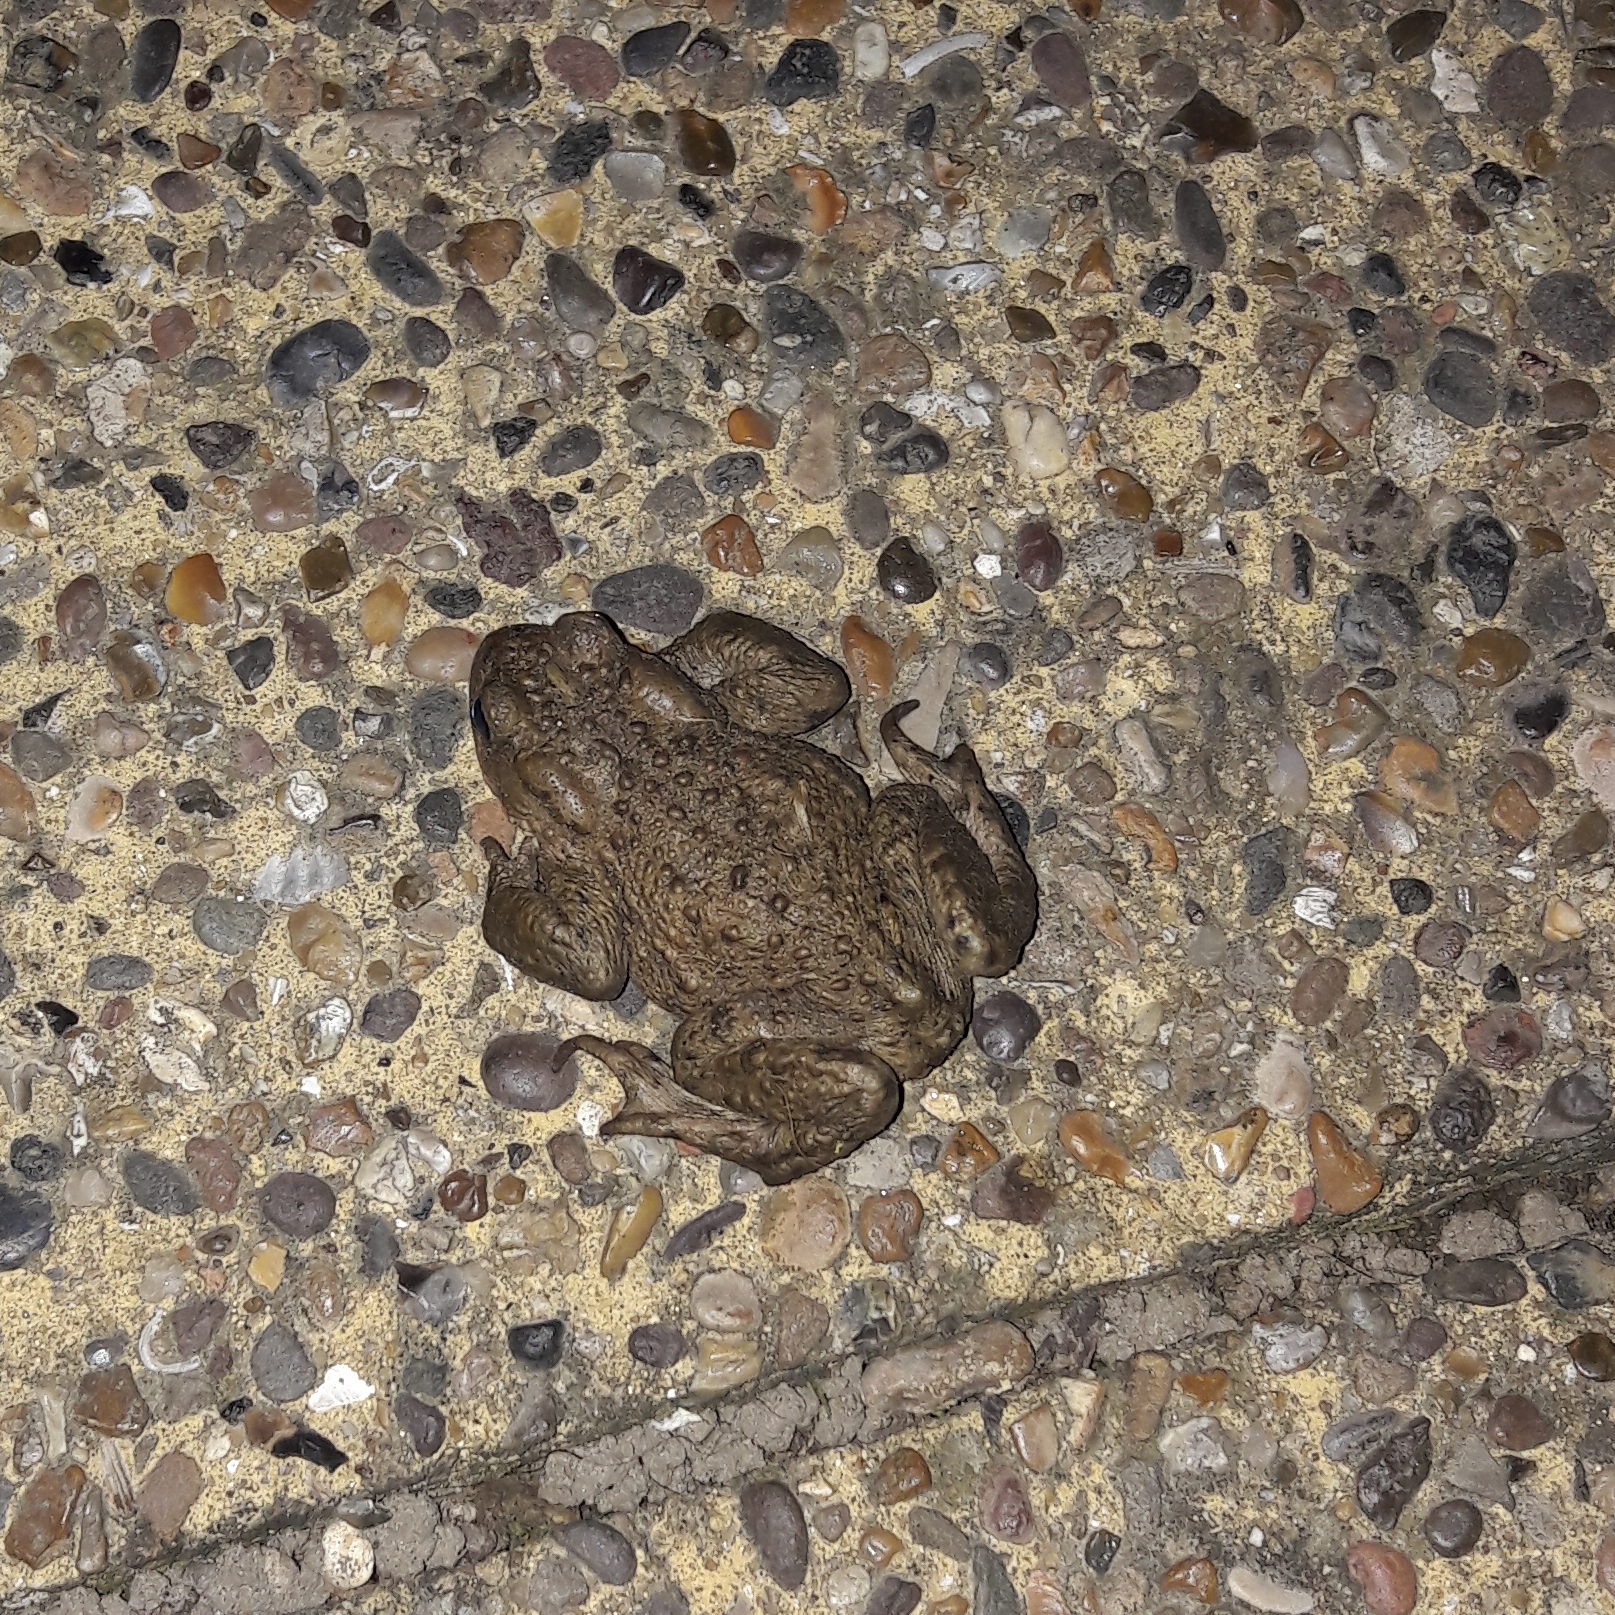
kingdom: Animalia
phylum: Chordata
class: Amphibia
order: Anura
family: Bufonidae
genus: Bufo
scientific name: Bufo bufo
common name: Common toad
